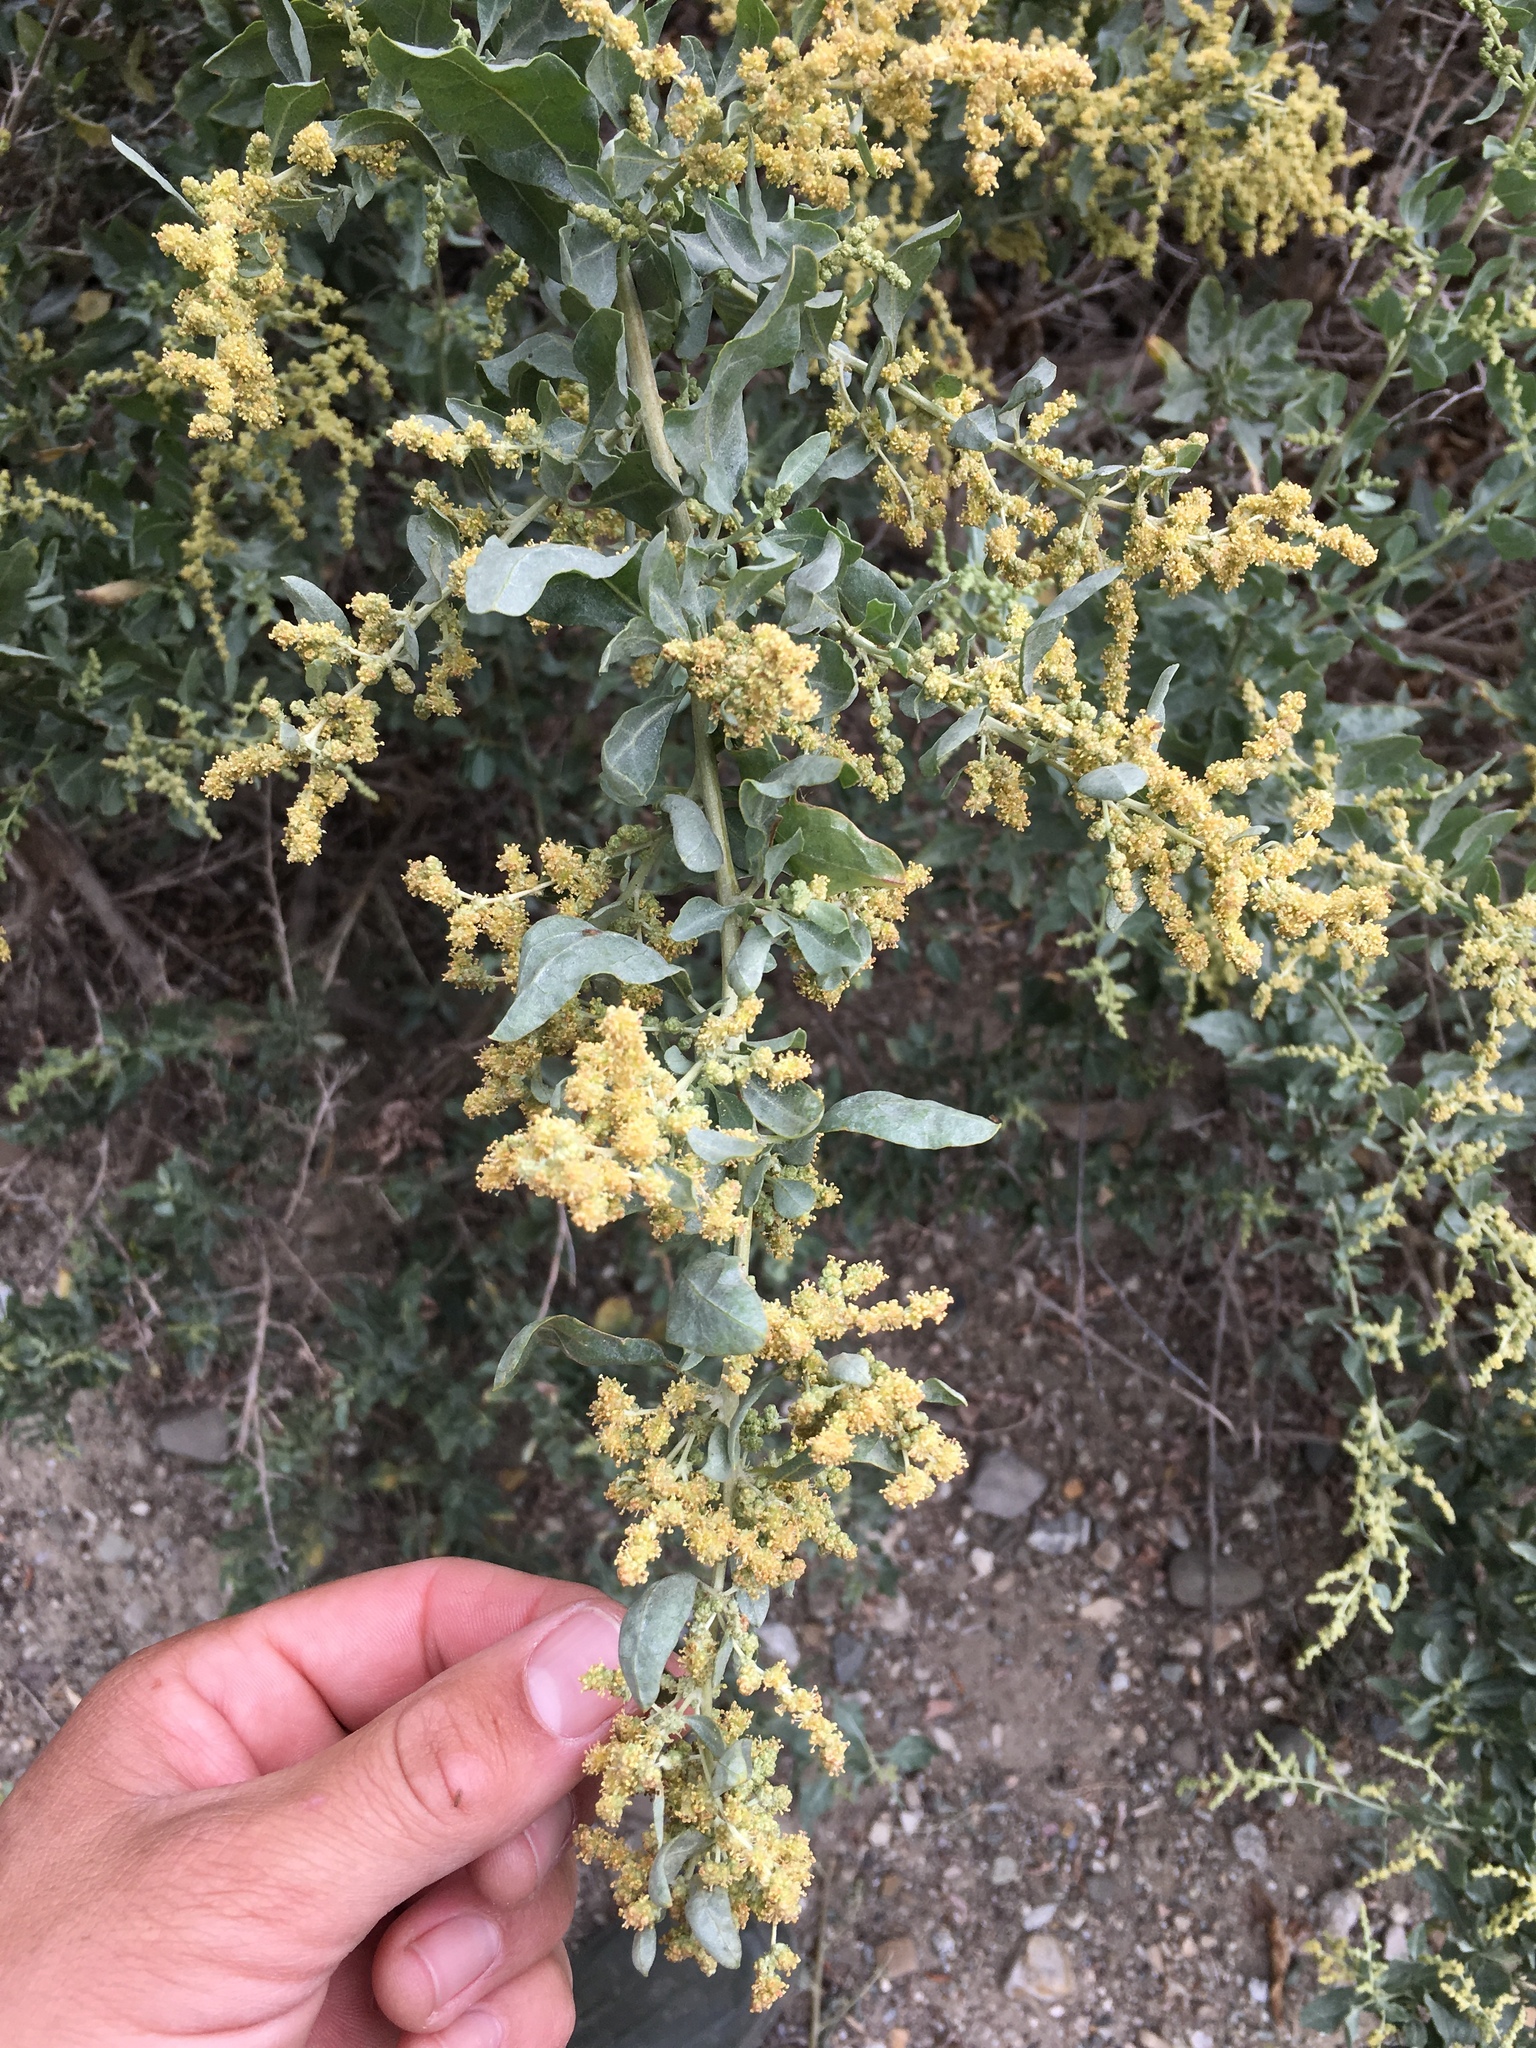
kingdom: Plantae
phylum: Tracheophyta
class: Magnoliopsida
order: Caryophyllales
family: Amaranthaceae
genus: Atriplex
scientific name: Atriplex lentiformis
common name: Big saltbush
